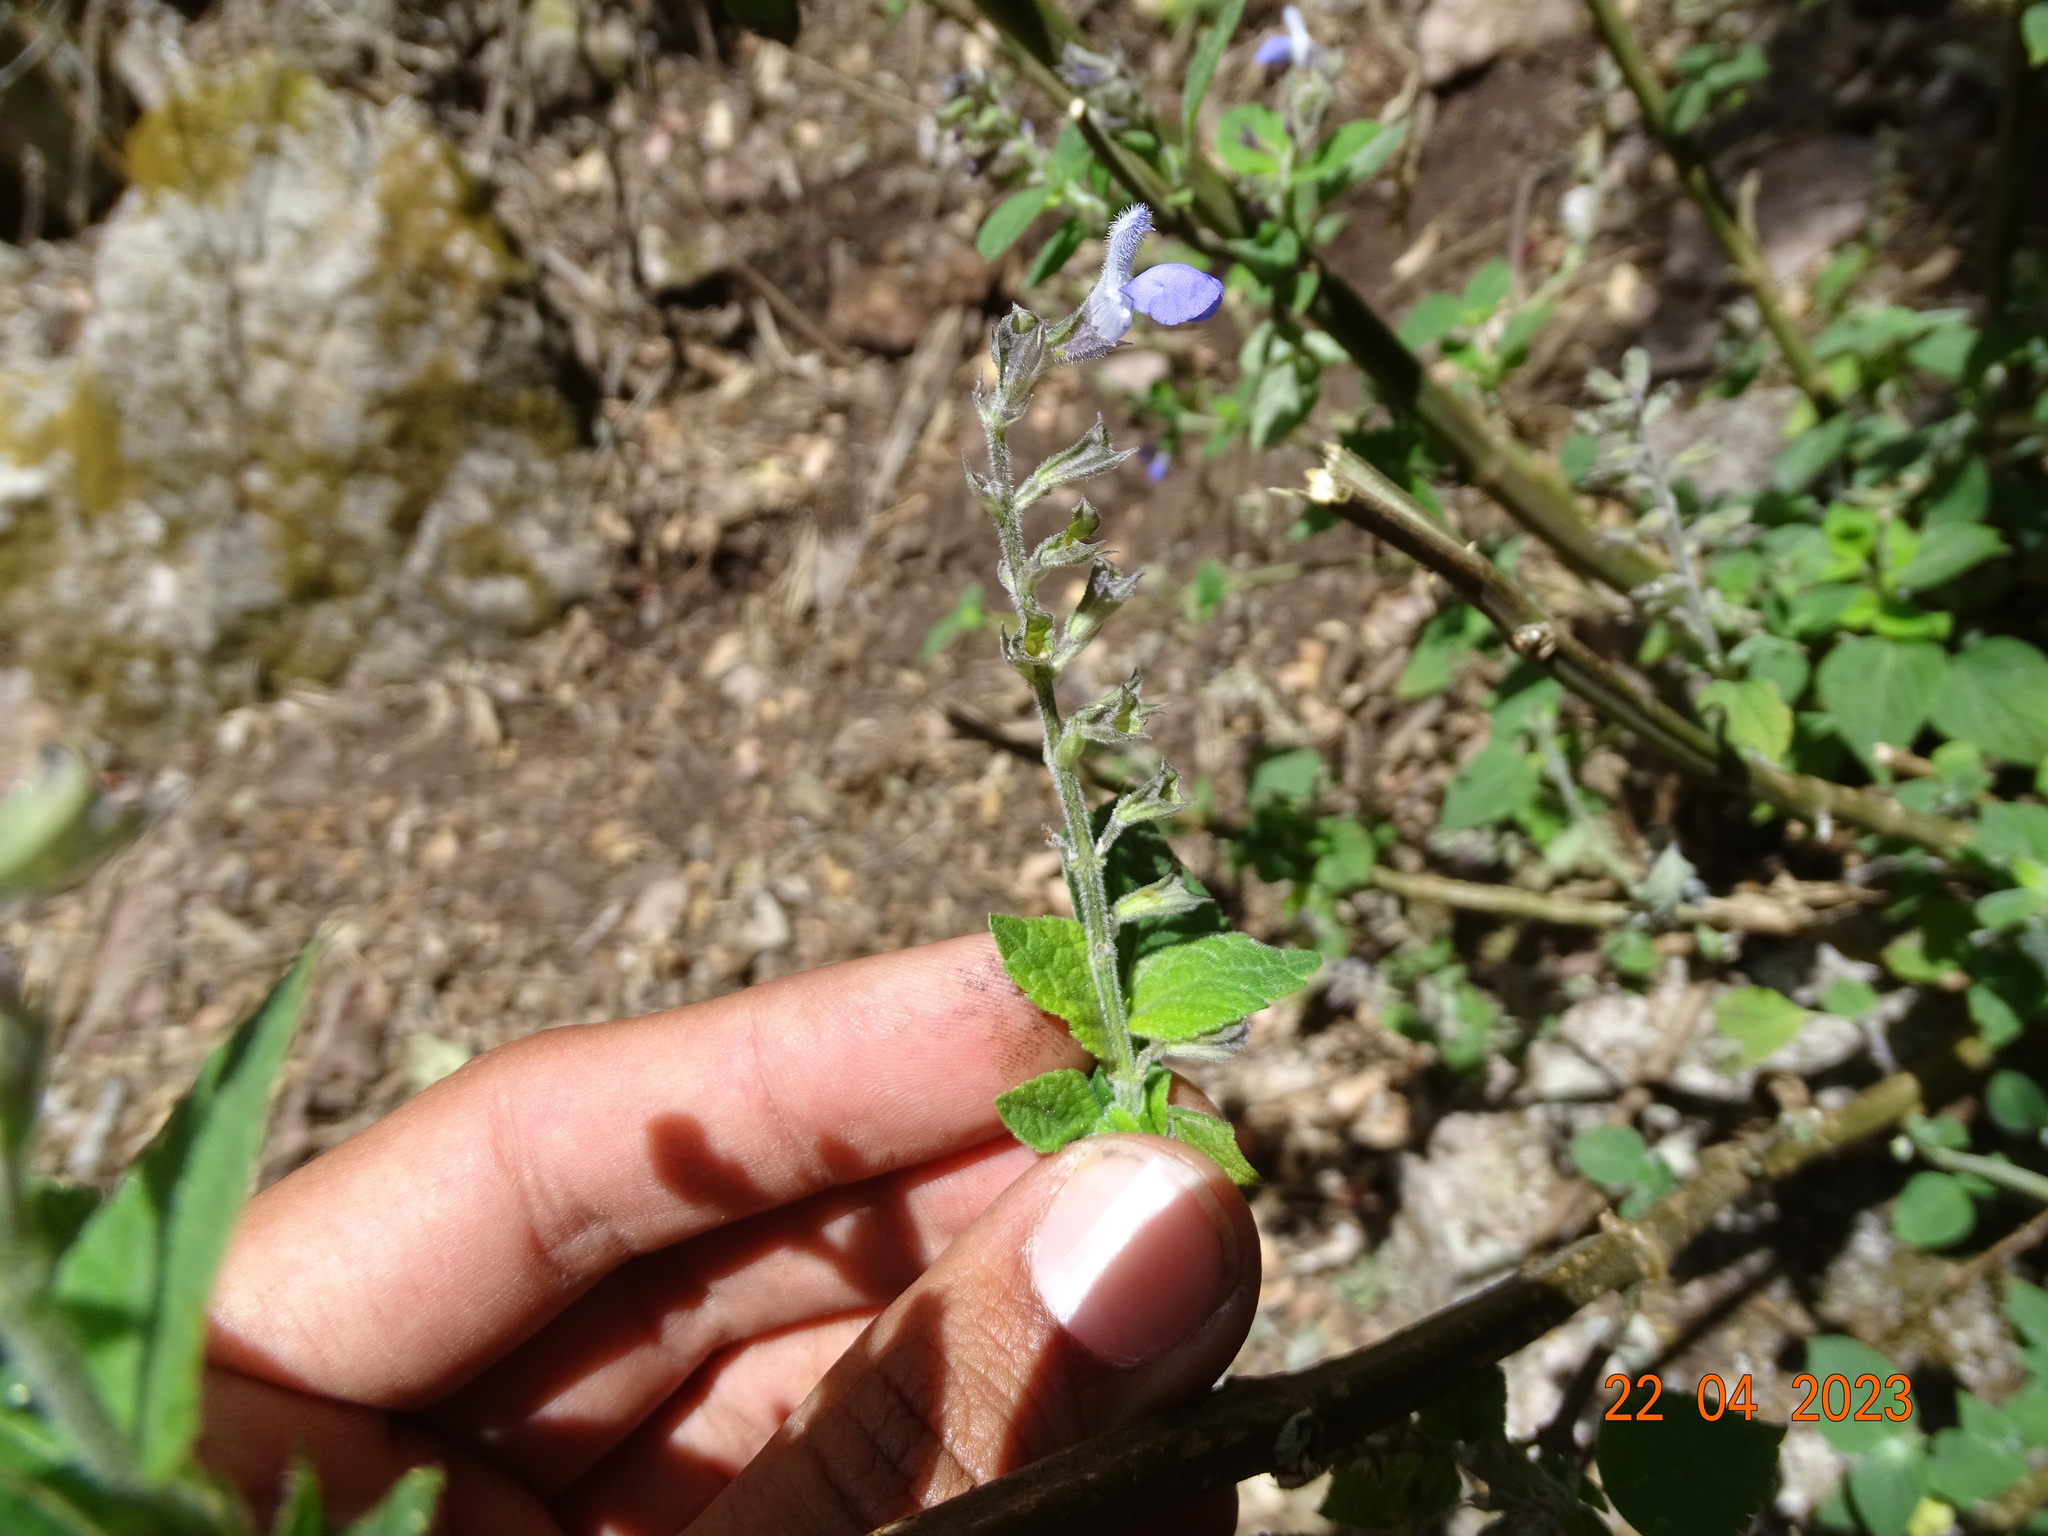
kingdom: Plantae
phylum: Tracheophyta
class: Magnoliopsida
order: Lamiales
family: Lamiaceae
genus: Salvia
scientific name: Salvia longispicata
